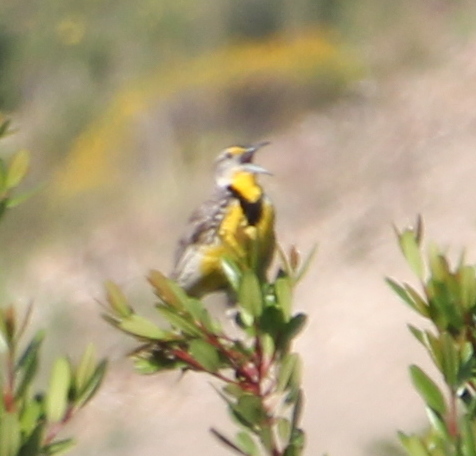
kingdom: Animalia
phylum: Chordata
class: Aves
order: Passeriformes
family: Icteridae
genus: Sturnella
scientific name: Sturnella neglecta
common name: Western meadowlark
